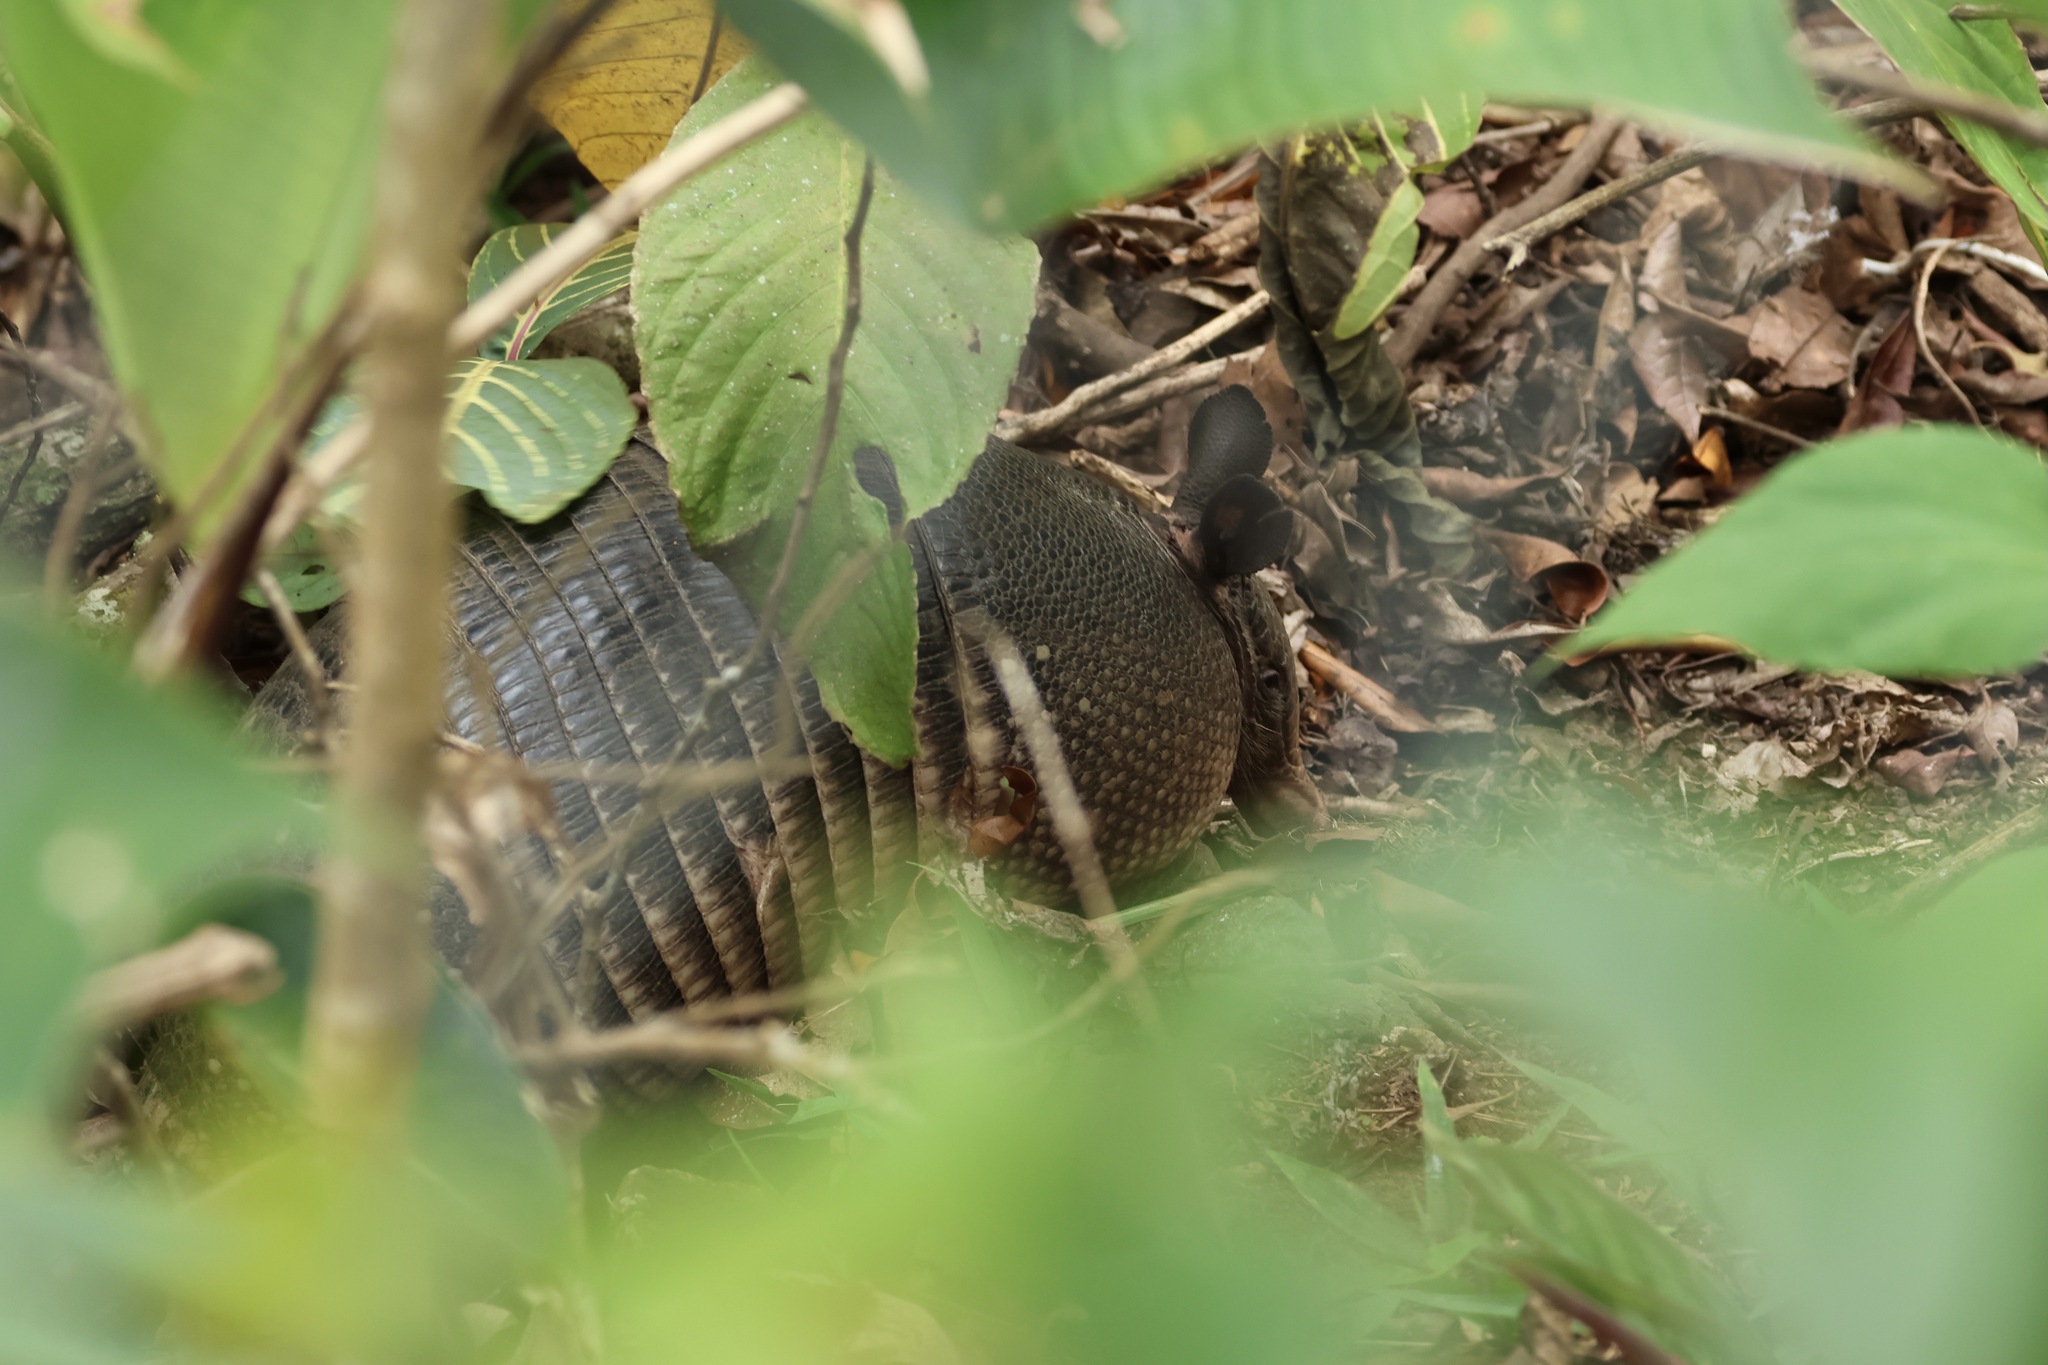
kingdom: Animalia
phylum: Chordata
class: Mammalia
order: Cingulata
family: Dasypodidae
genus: Dasypus
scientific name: Dasypus novemcinctus
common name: Nine-banded armadillo
